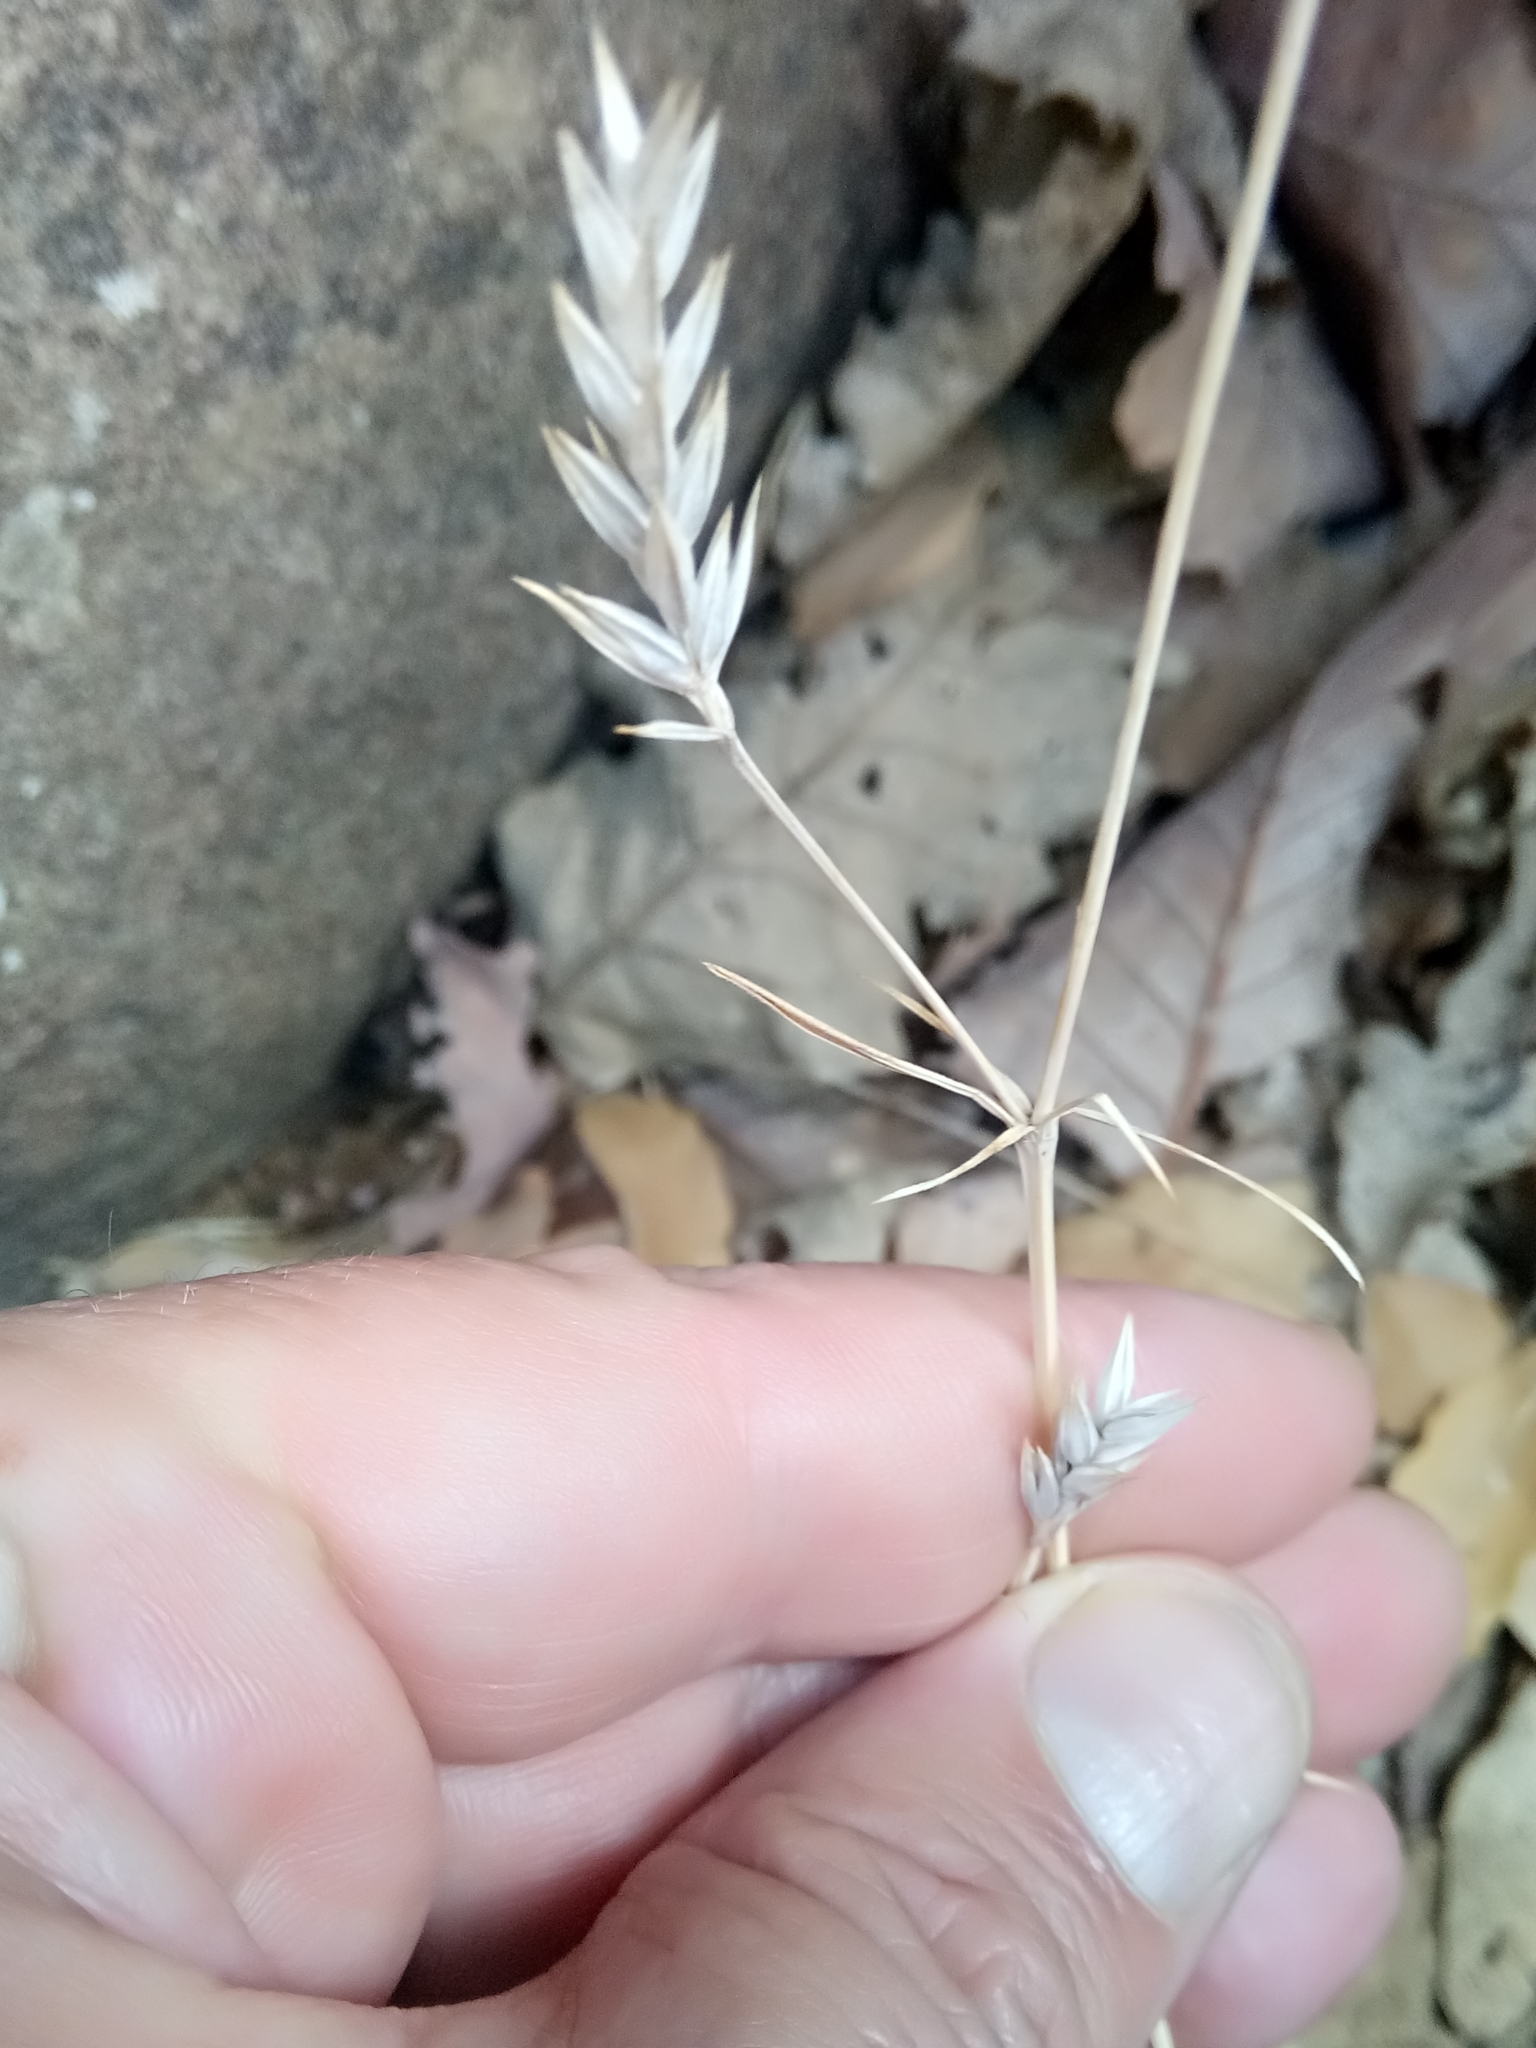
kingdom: Plantae
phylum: Tracheophyta
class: Magnoliopsida
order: Gentianales
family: Rubiaceae
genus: Crucianella
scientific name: Crucianella angustifolia
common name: Narrowleaf crucianella
